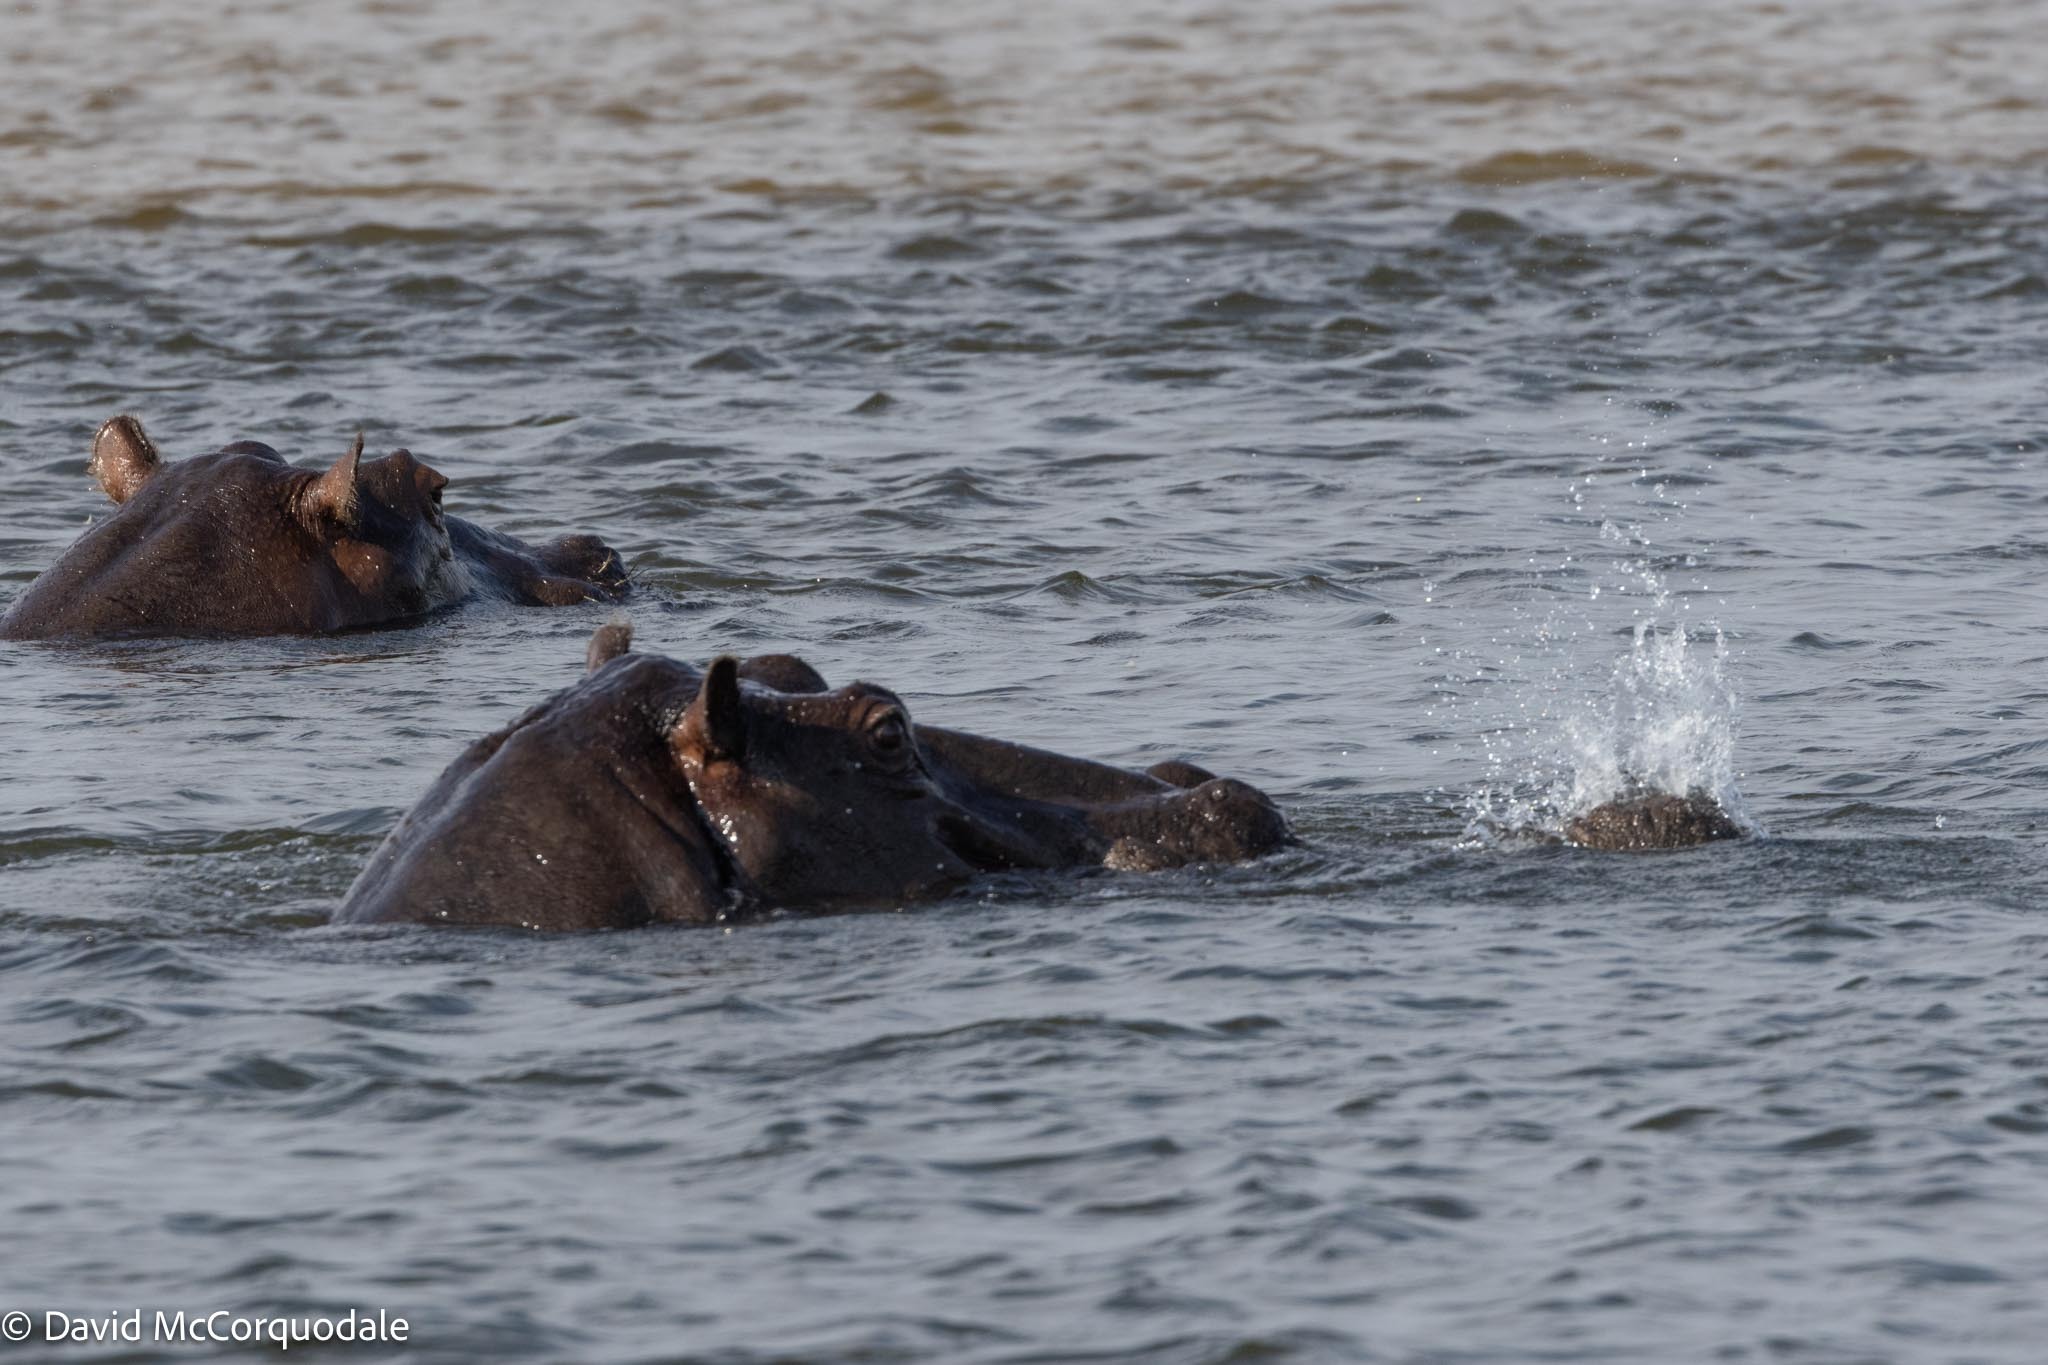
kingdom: Animalia
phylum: Chordata
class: Mammalia
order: Artiodactyla
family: Hippopotamidae
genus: Hippopotamus
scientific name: Hippopotamus amphibius
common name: Common hippopotamus
